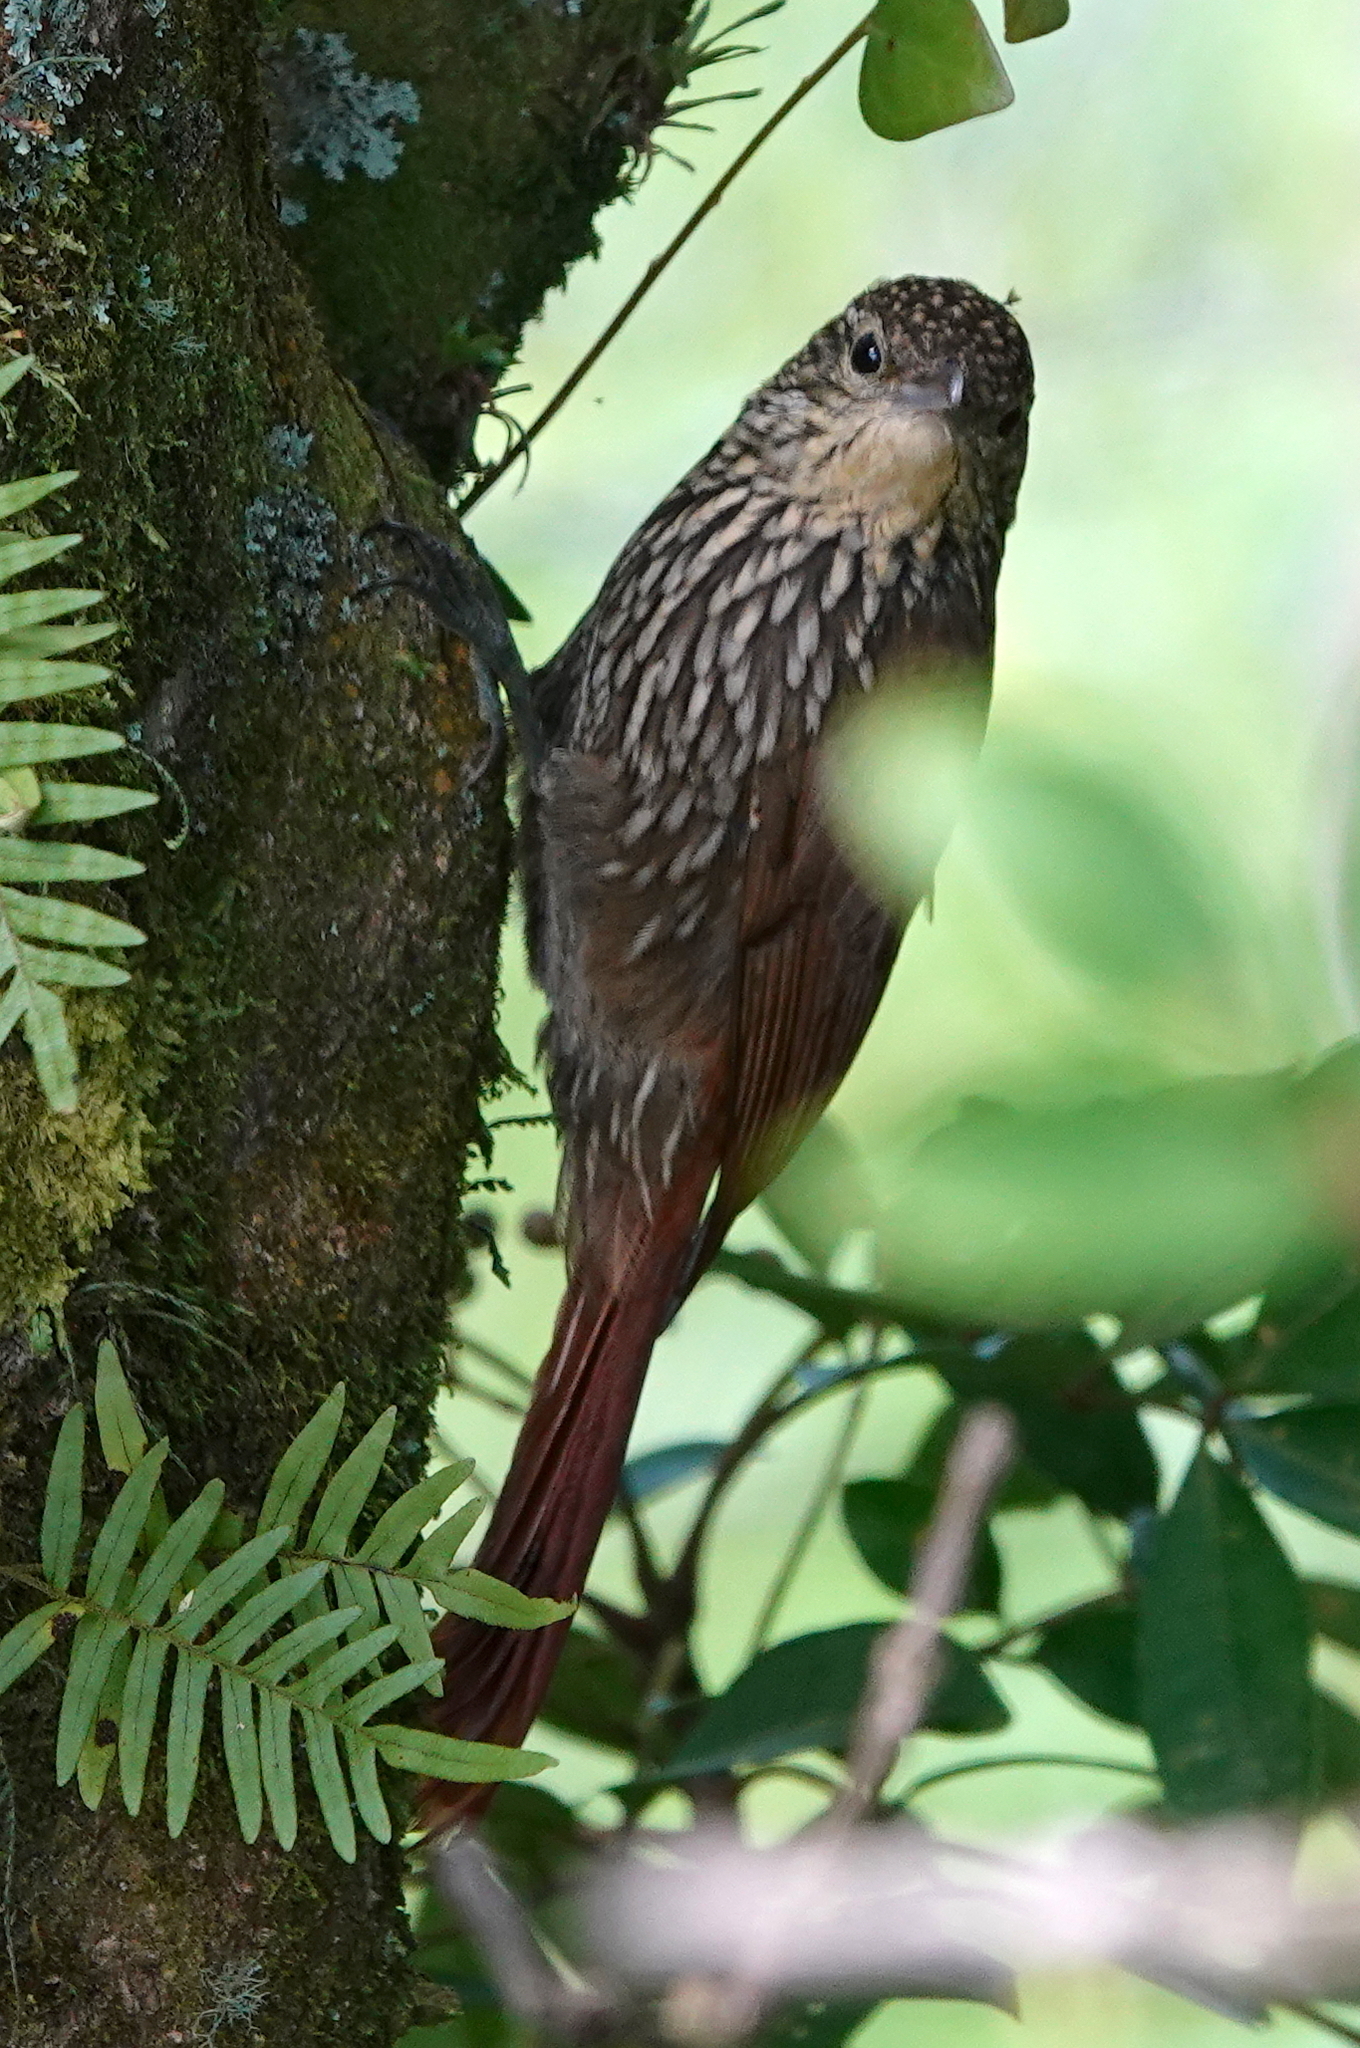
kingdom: Animalia
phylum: Chordata
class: Aves
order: Passeriformes
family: Furnariidae
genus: Lepidocolaptes
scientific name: Lepidocolaptes affinis
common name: Spot-crowned woodcreeper
